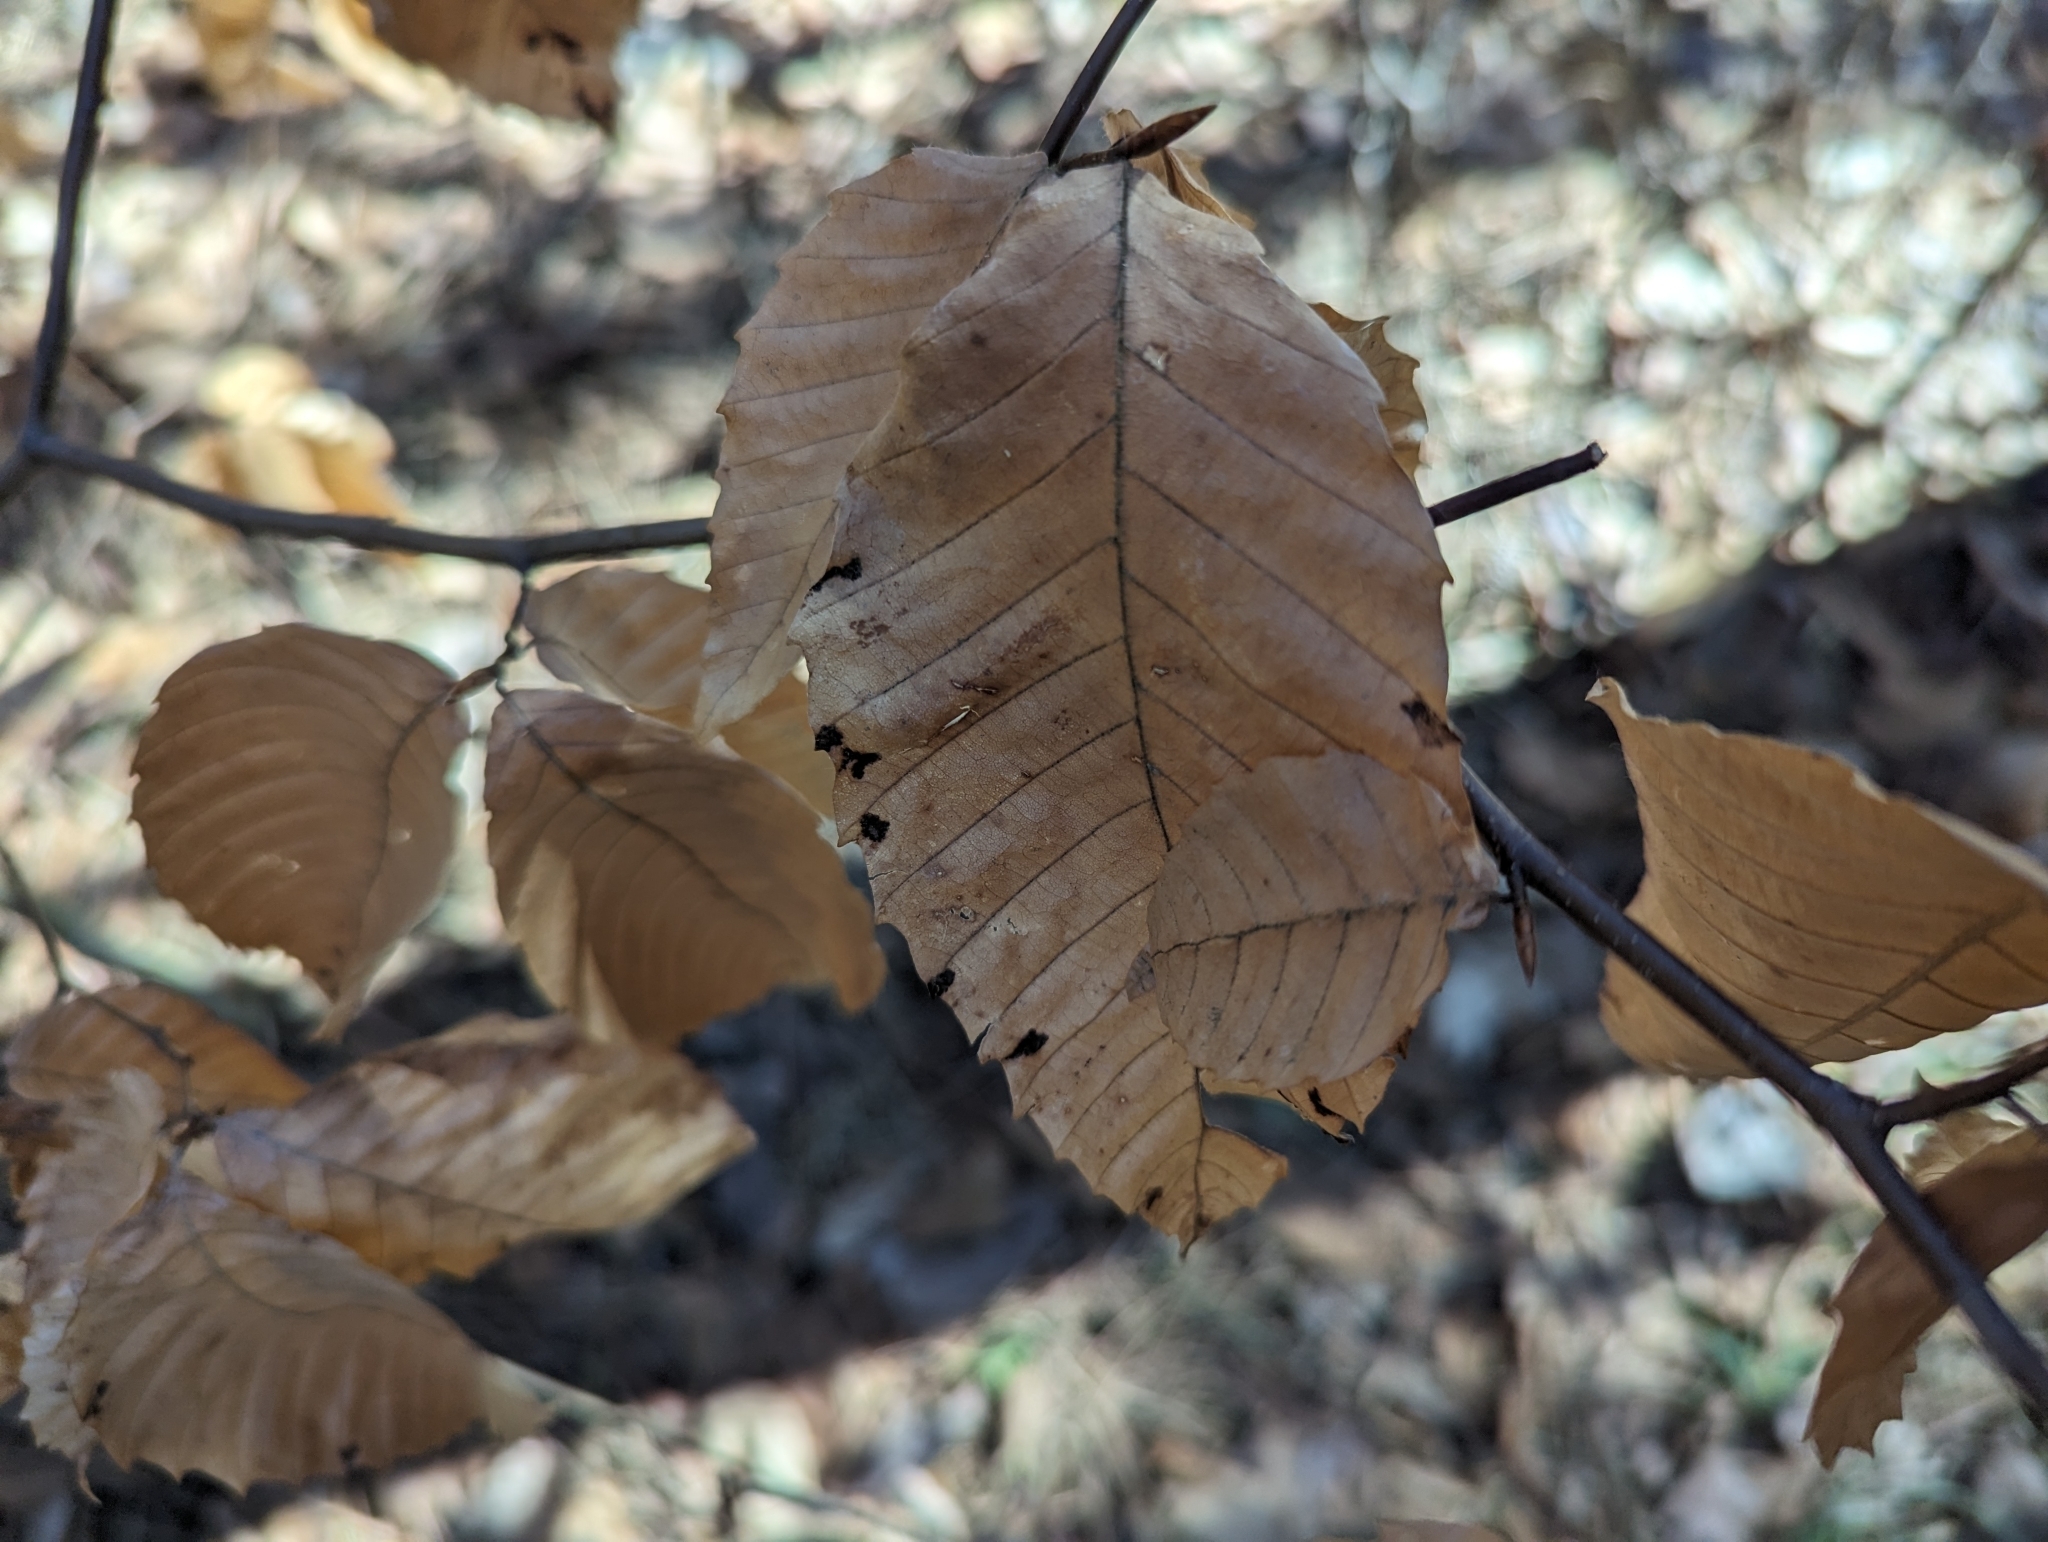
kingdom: Animalia
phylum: Arthropoda
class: Arachnida
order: Trombidiformes
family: Eriophyidae
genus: Acalitus
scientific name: Acalitus
